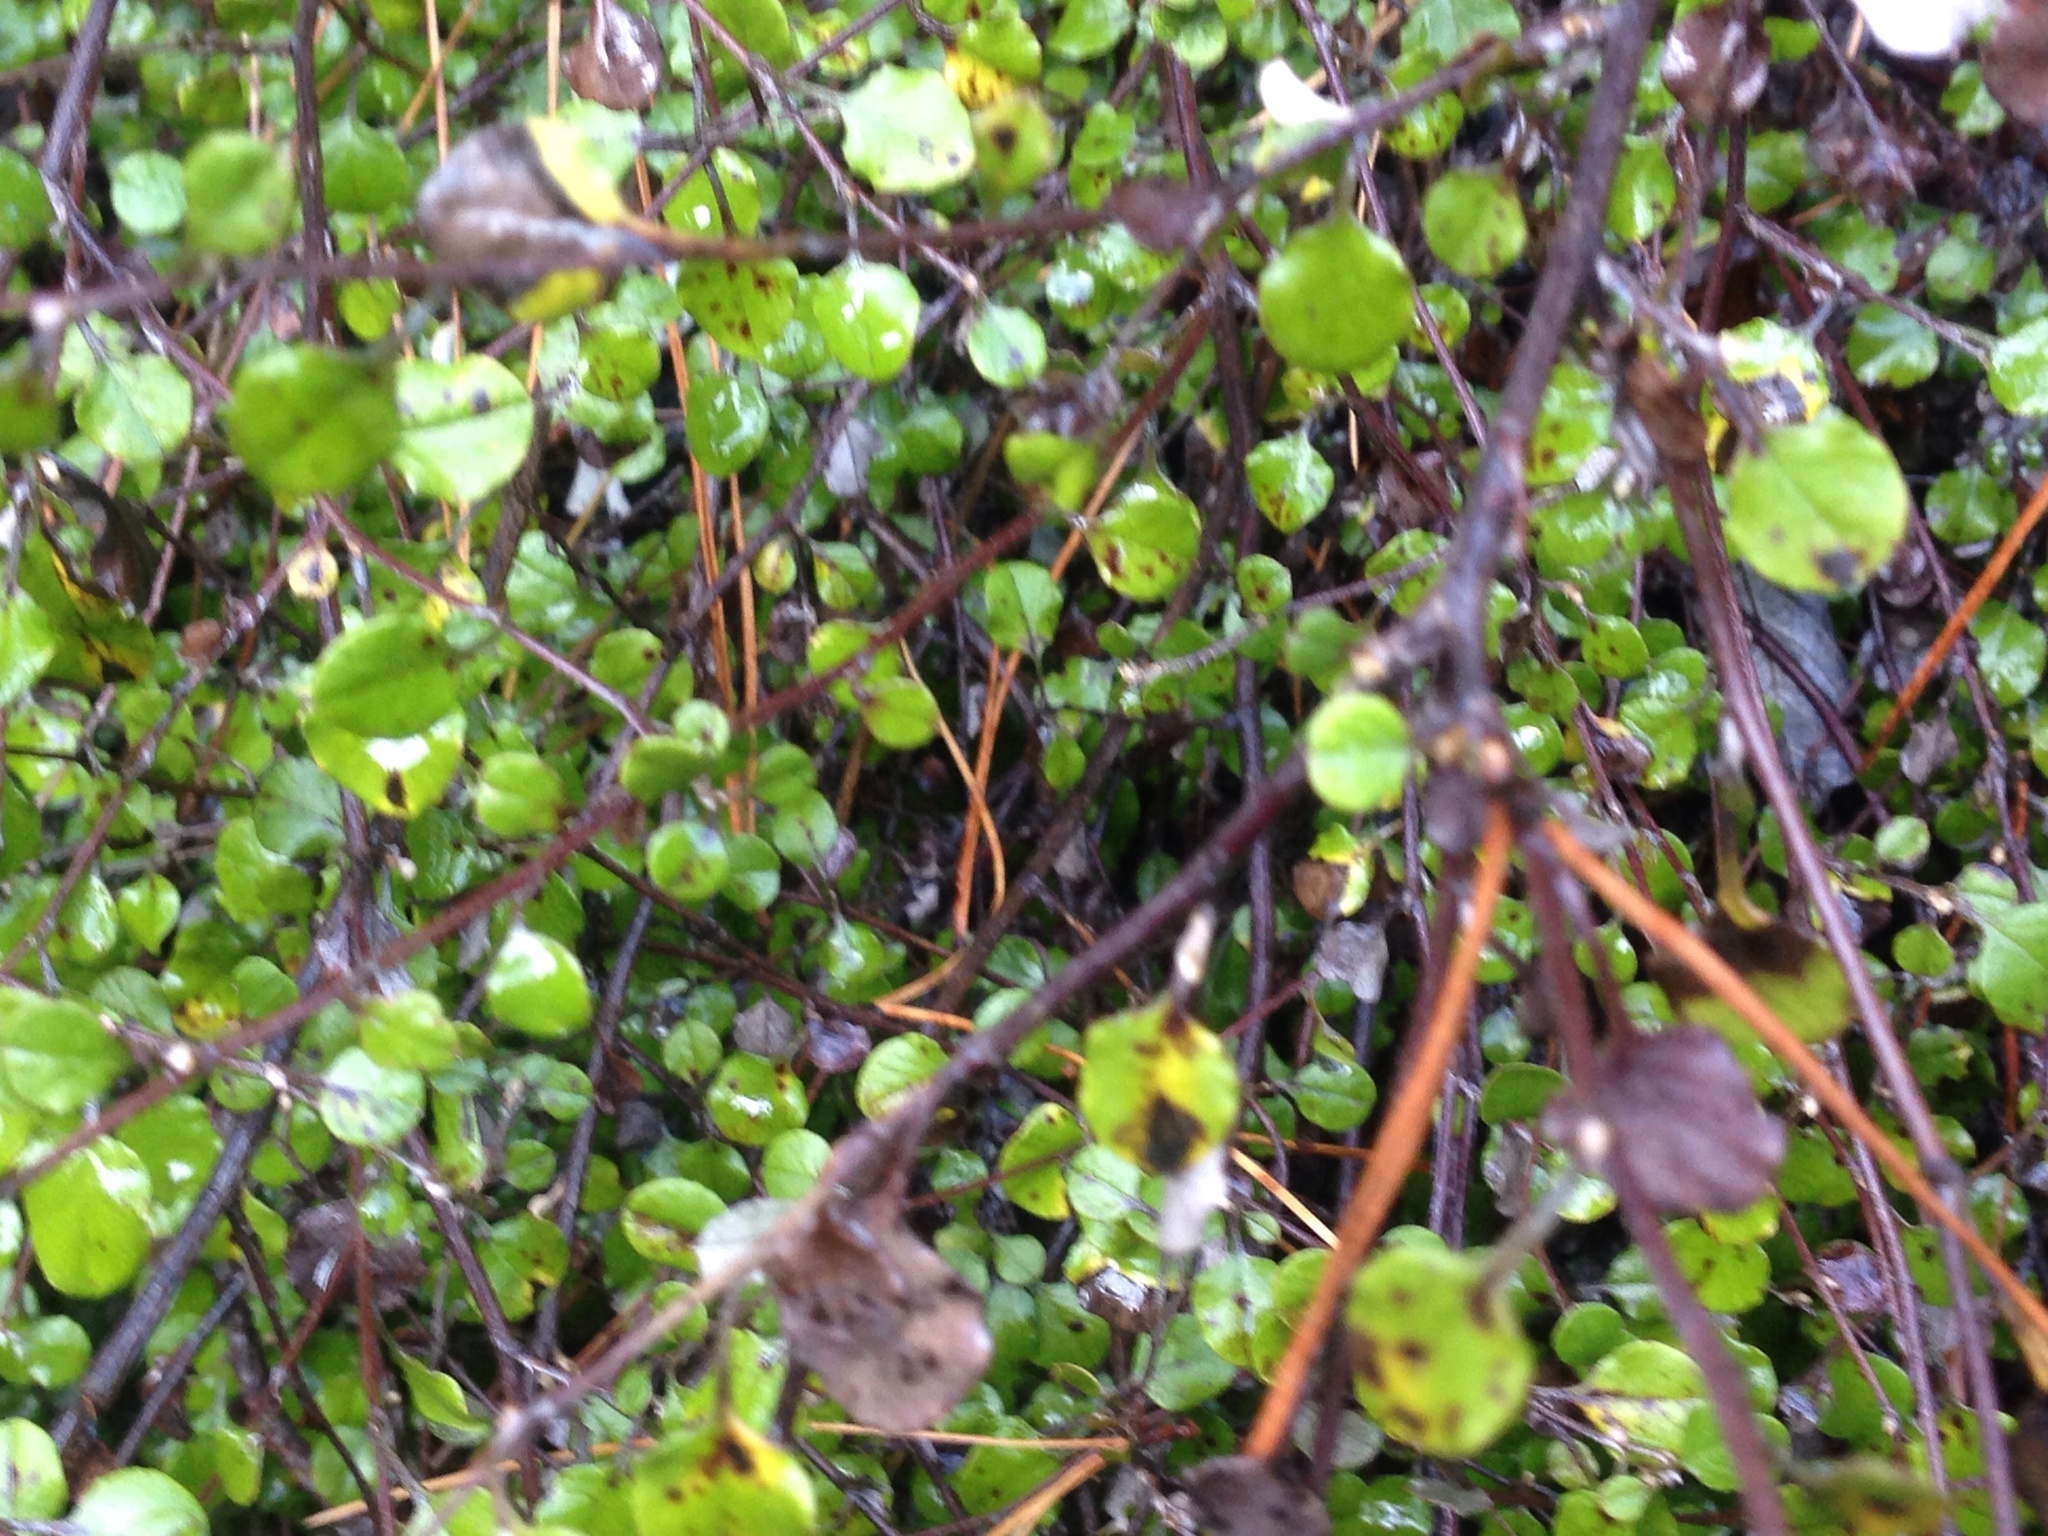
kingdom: Plantae
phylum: Tracheophyta
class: Magnoliopsida
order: Asterales
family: Asteraceae
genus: Ozothamnus
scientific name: Ozothamnus glomeratus
